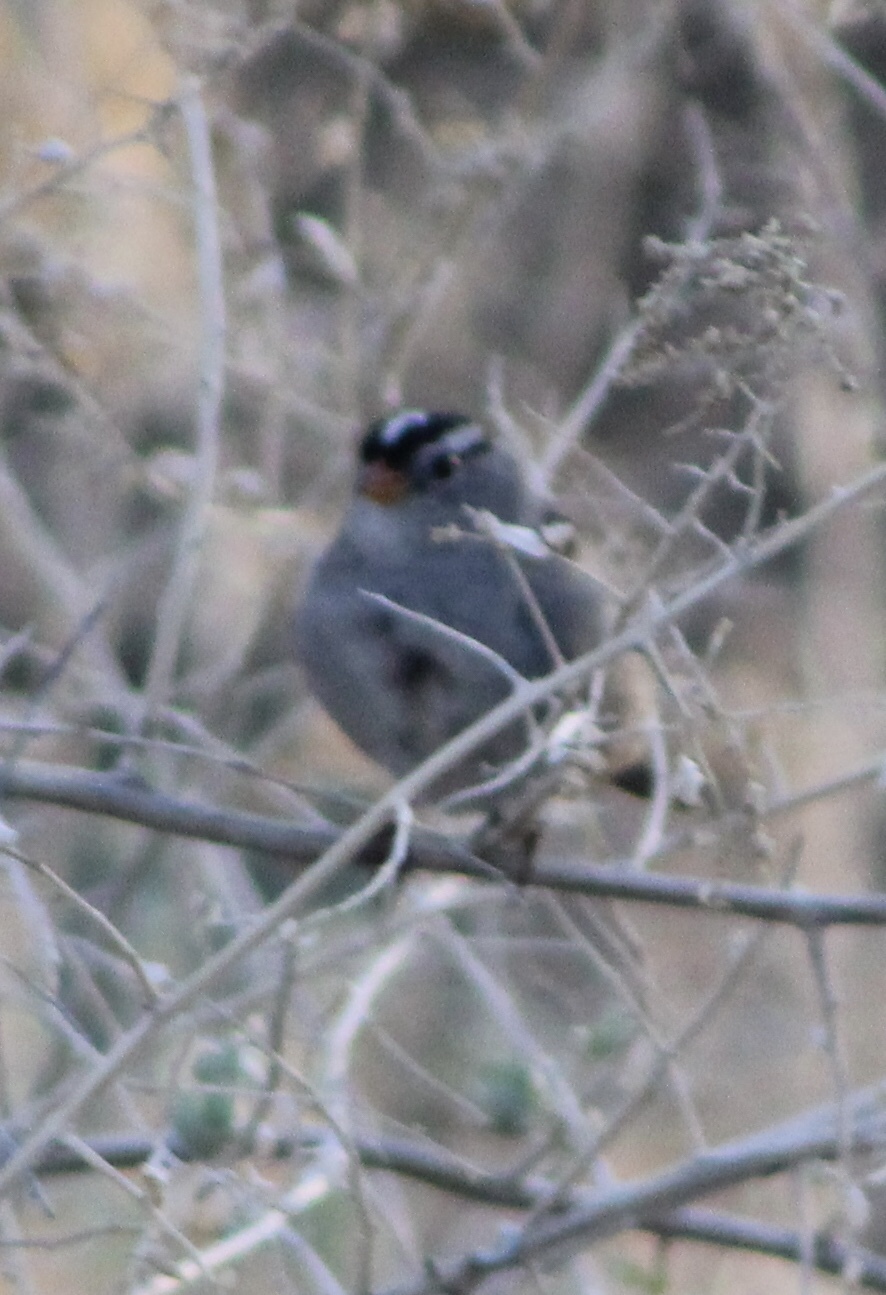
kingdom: Animalia
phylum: Chordata
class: Aves
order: Passeriformes
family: Passerellidae
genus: Zonotrichia
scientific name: Zonotrichia leucophrys
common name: White-crowned sparrow
